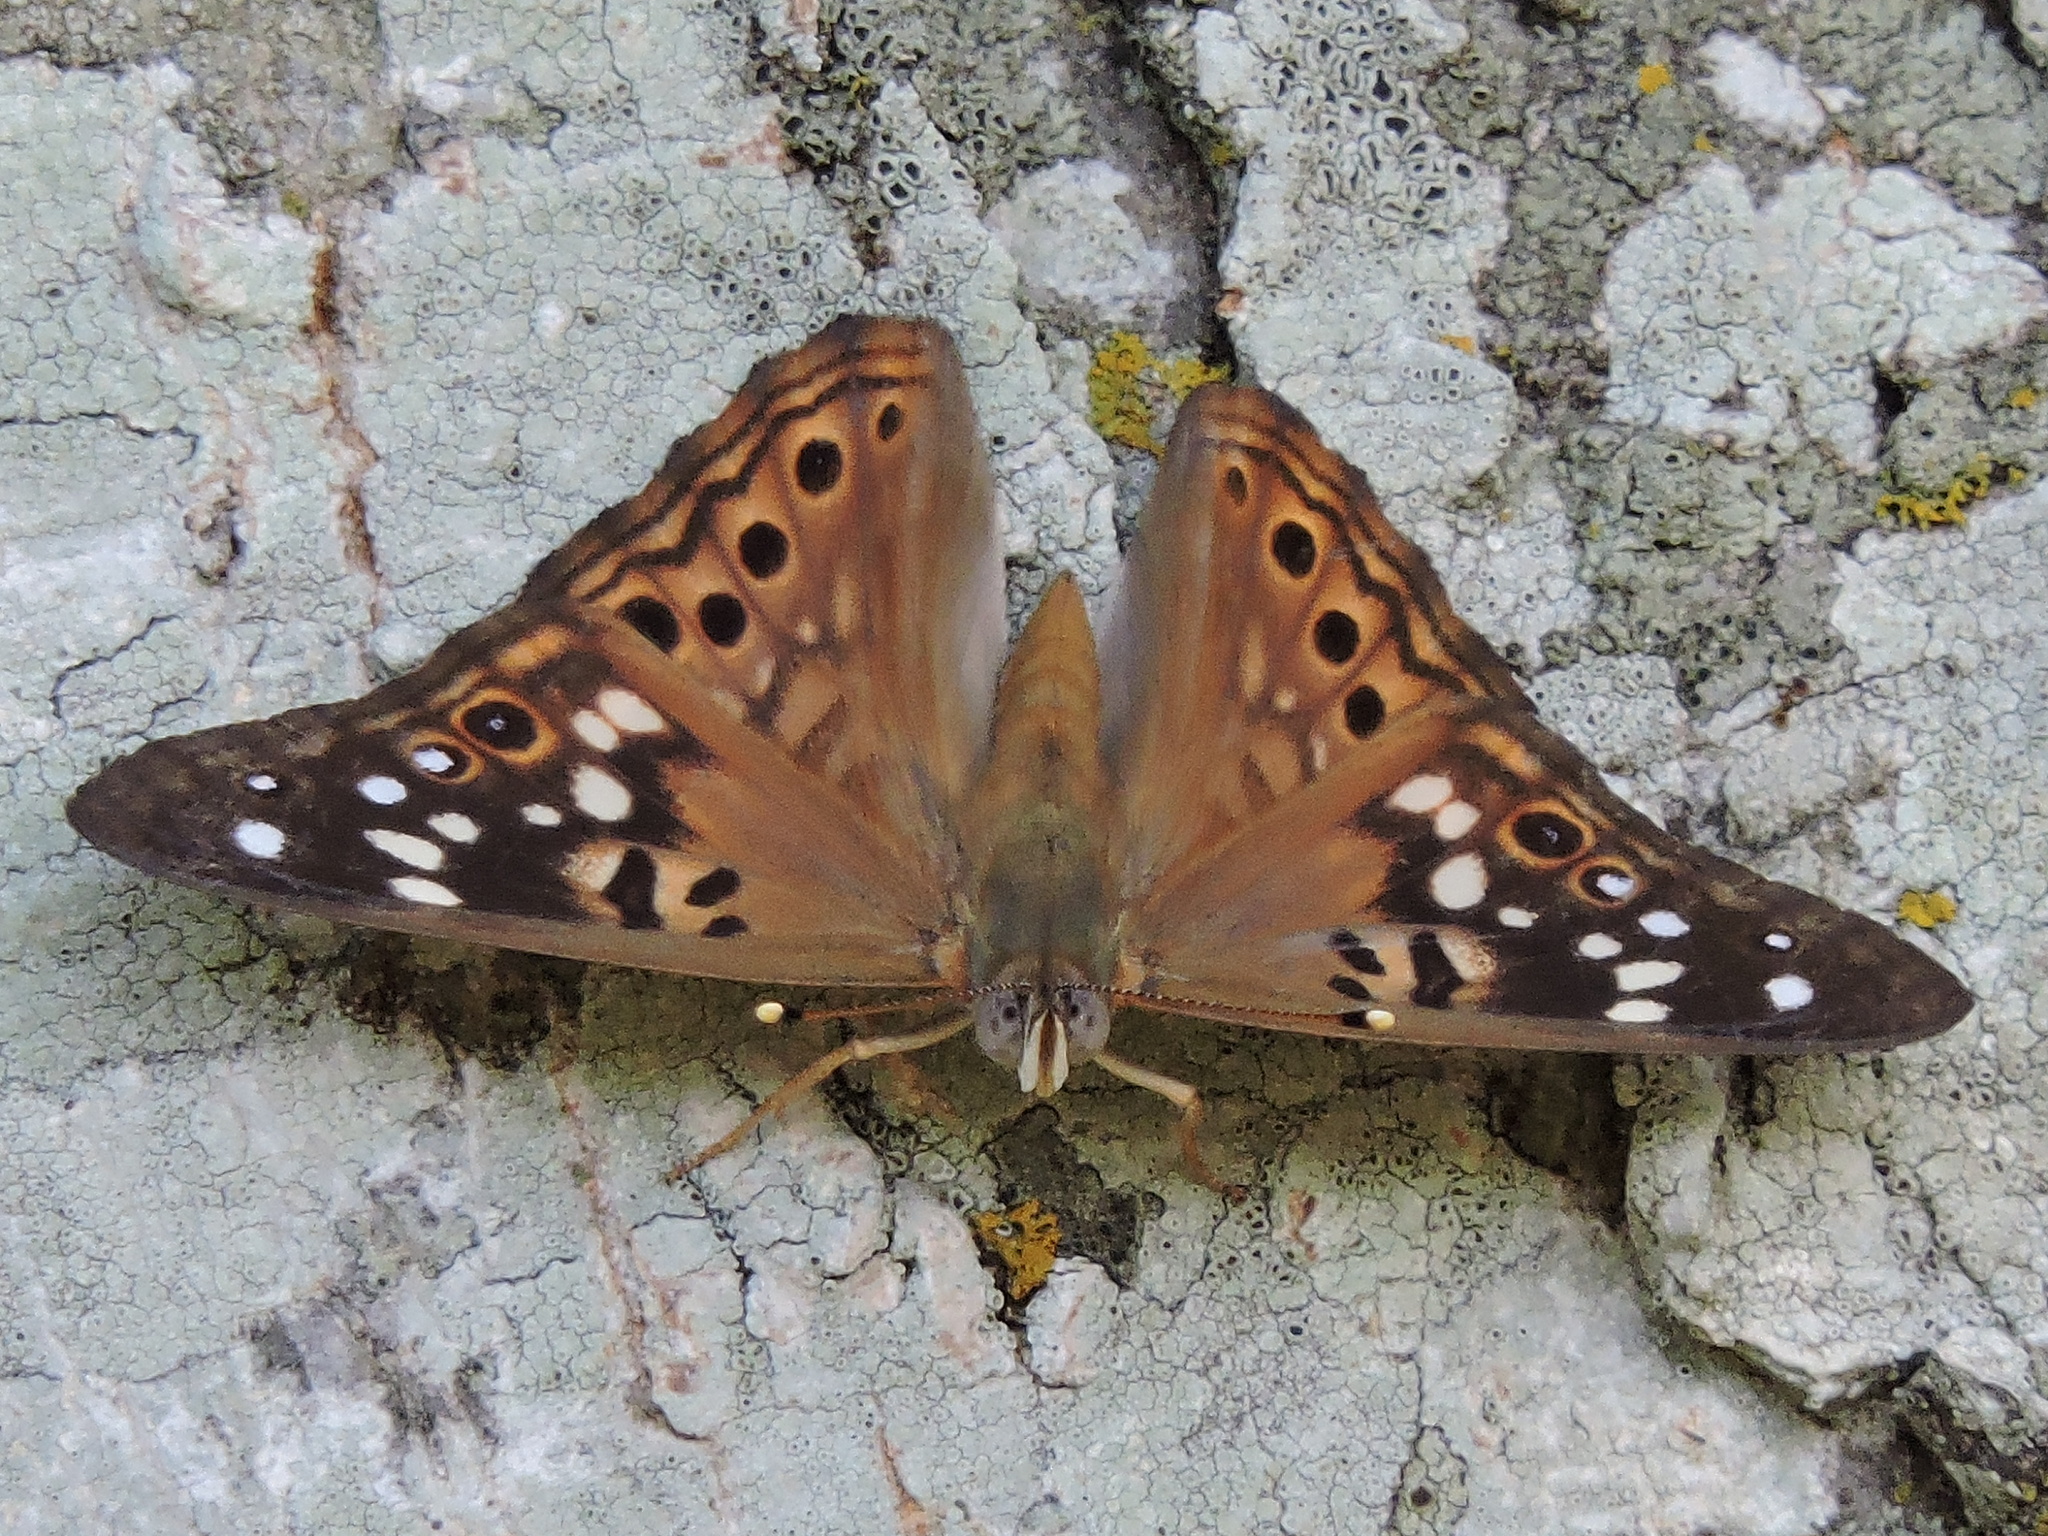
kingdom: Animalia
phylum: Arthropoda
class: Insecta
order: Lepidoptera
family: Nymphalidae
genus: Asterocampa
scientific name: Asterocampa celtis
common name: Hackberry emperor
